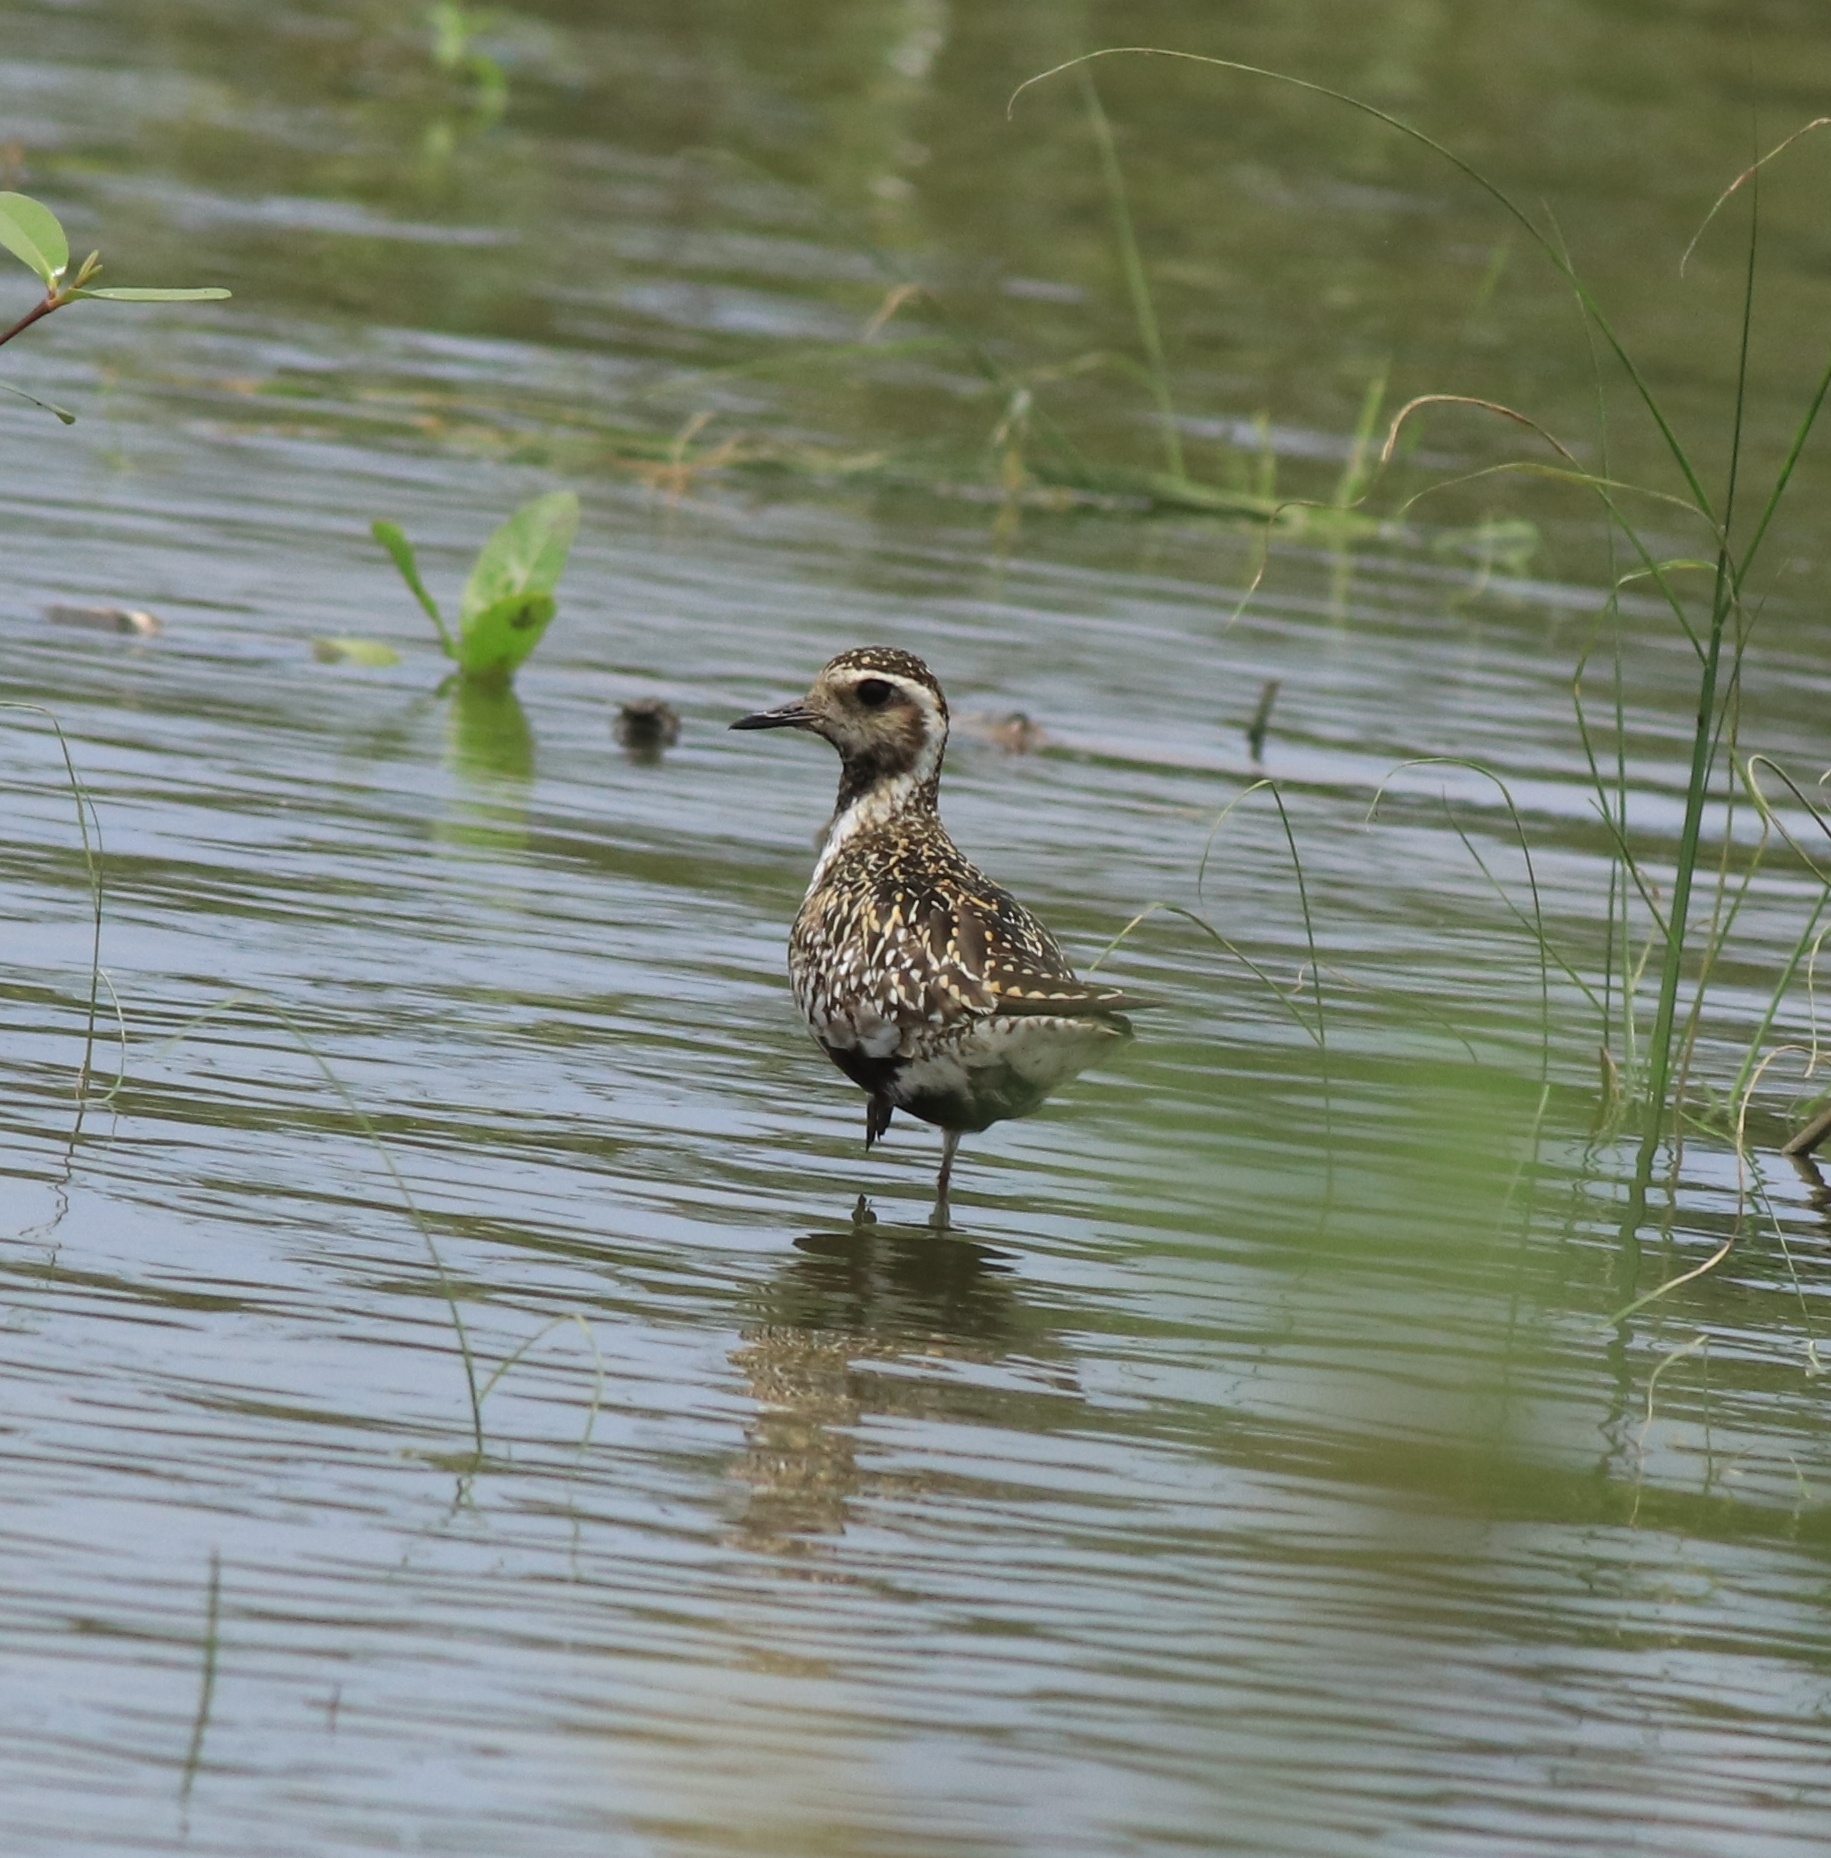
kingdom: Animalia
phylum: Chordata
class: Aves
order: Charadriiformes
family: Charadriidae
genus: Pluvialis
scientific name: Pluvialis fulva
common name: Pacific golden plover
